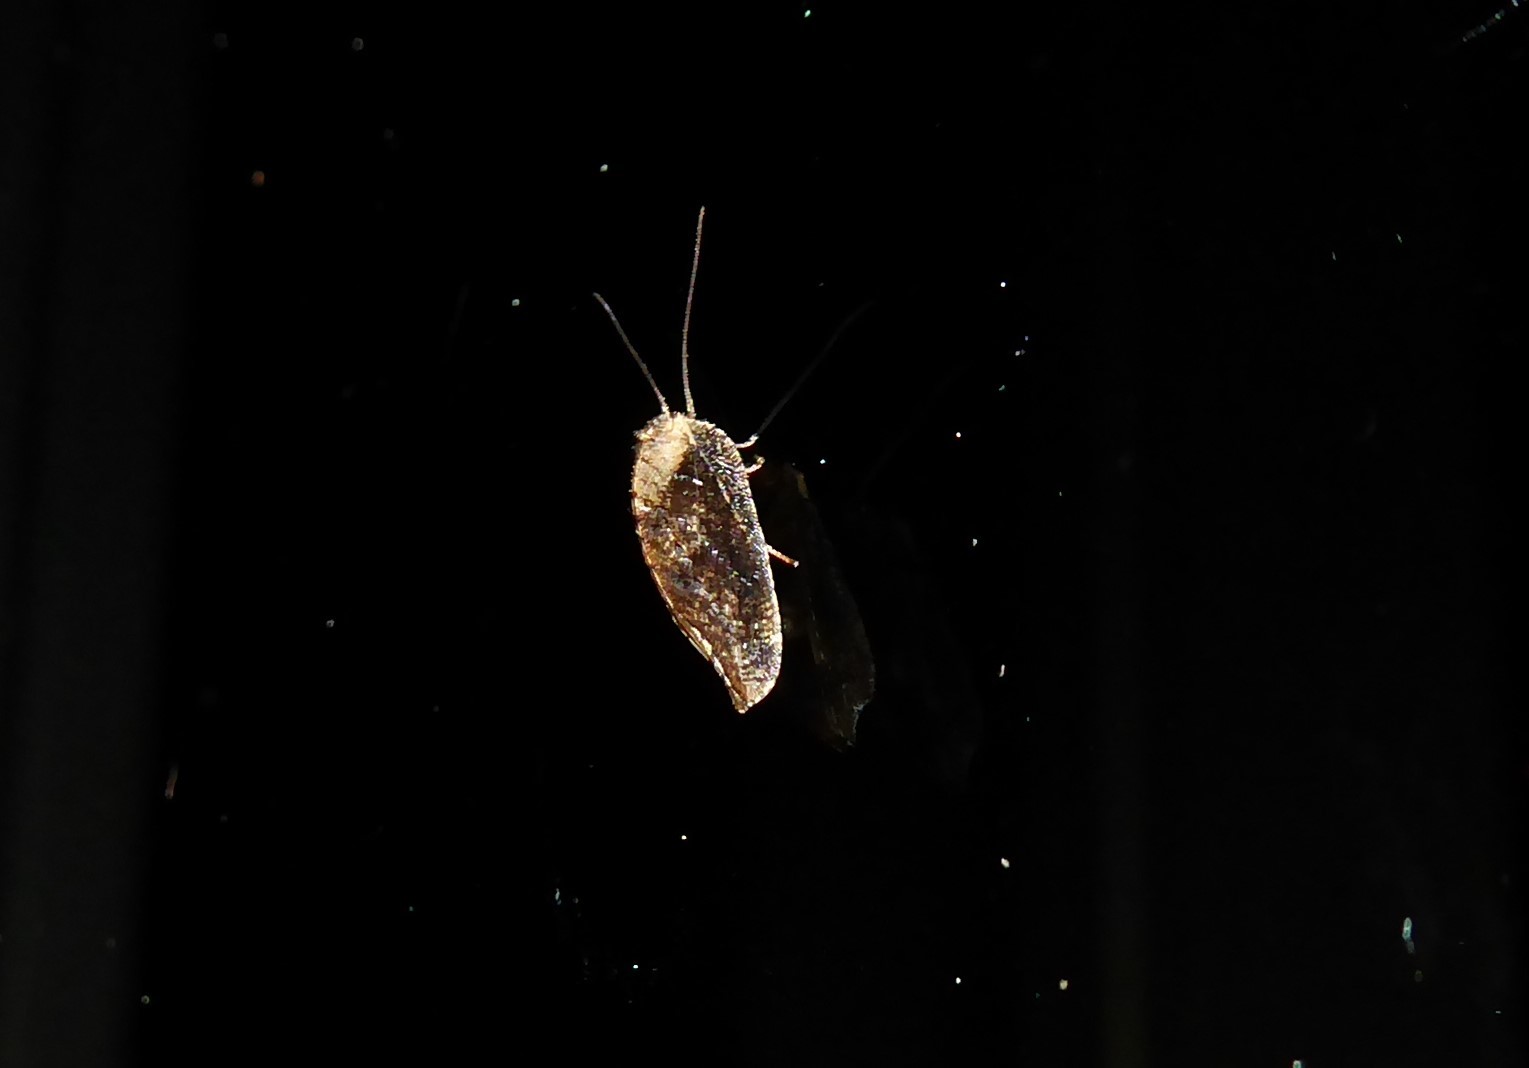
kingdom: Animalia
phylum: Arthropoda
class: Insecta
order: Neuroptera
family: Hemerobiidae
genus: Drepanacra
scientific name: Drepanacra binocula
